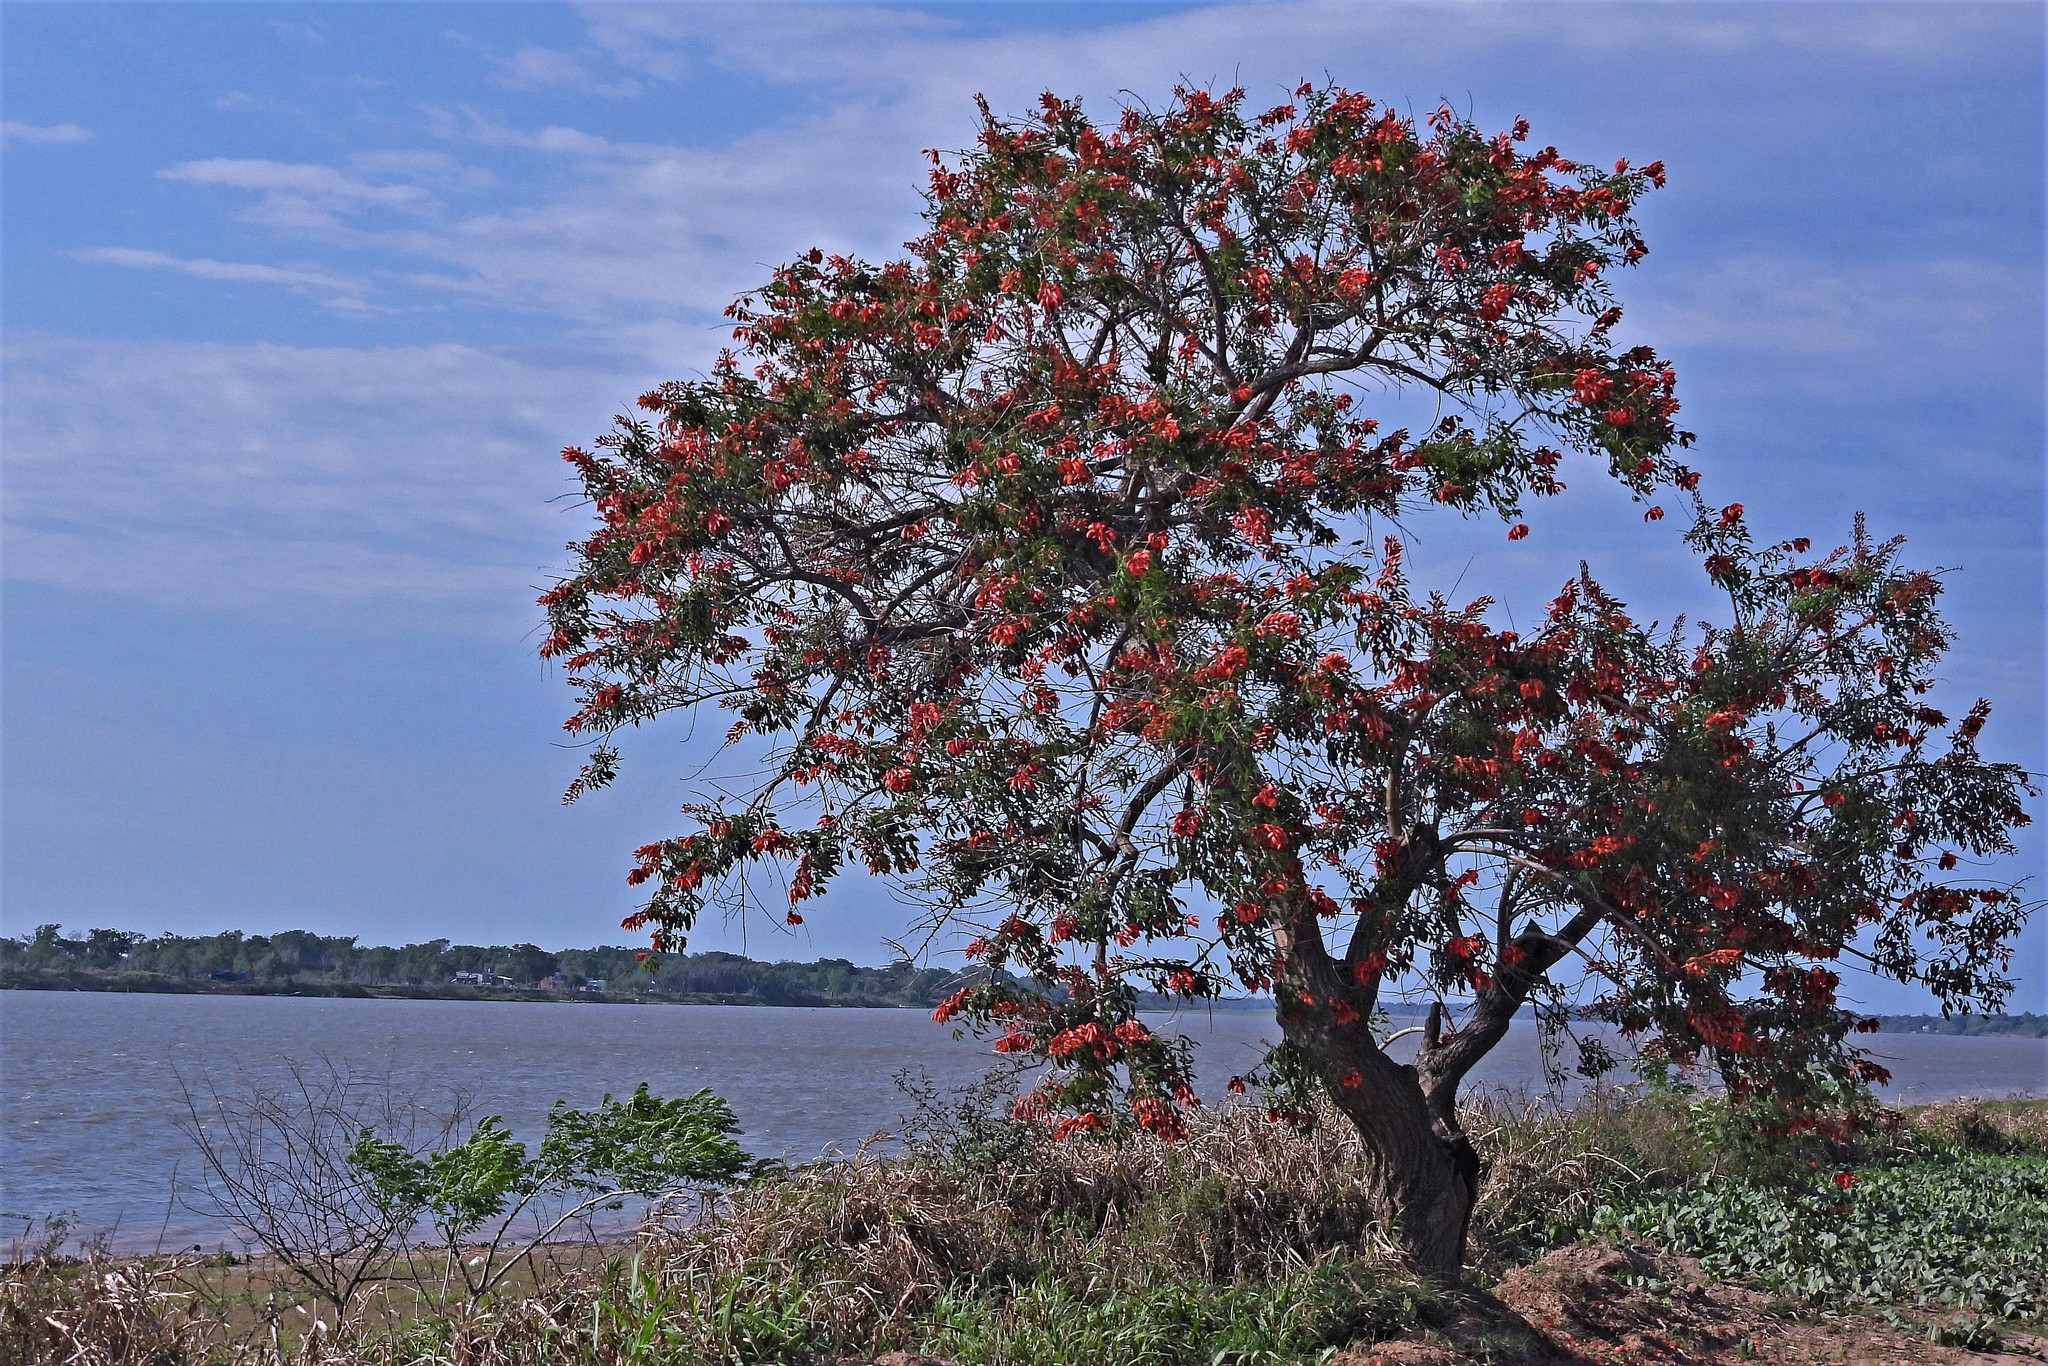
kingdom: Plantae
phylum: Tracheophyta
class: Magnoliopsida
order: Fabales
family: Fabaceae
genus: Erythrina
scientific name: Erythrina crista-galli
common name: Cockspur coral tree
